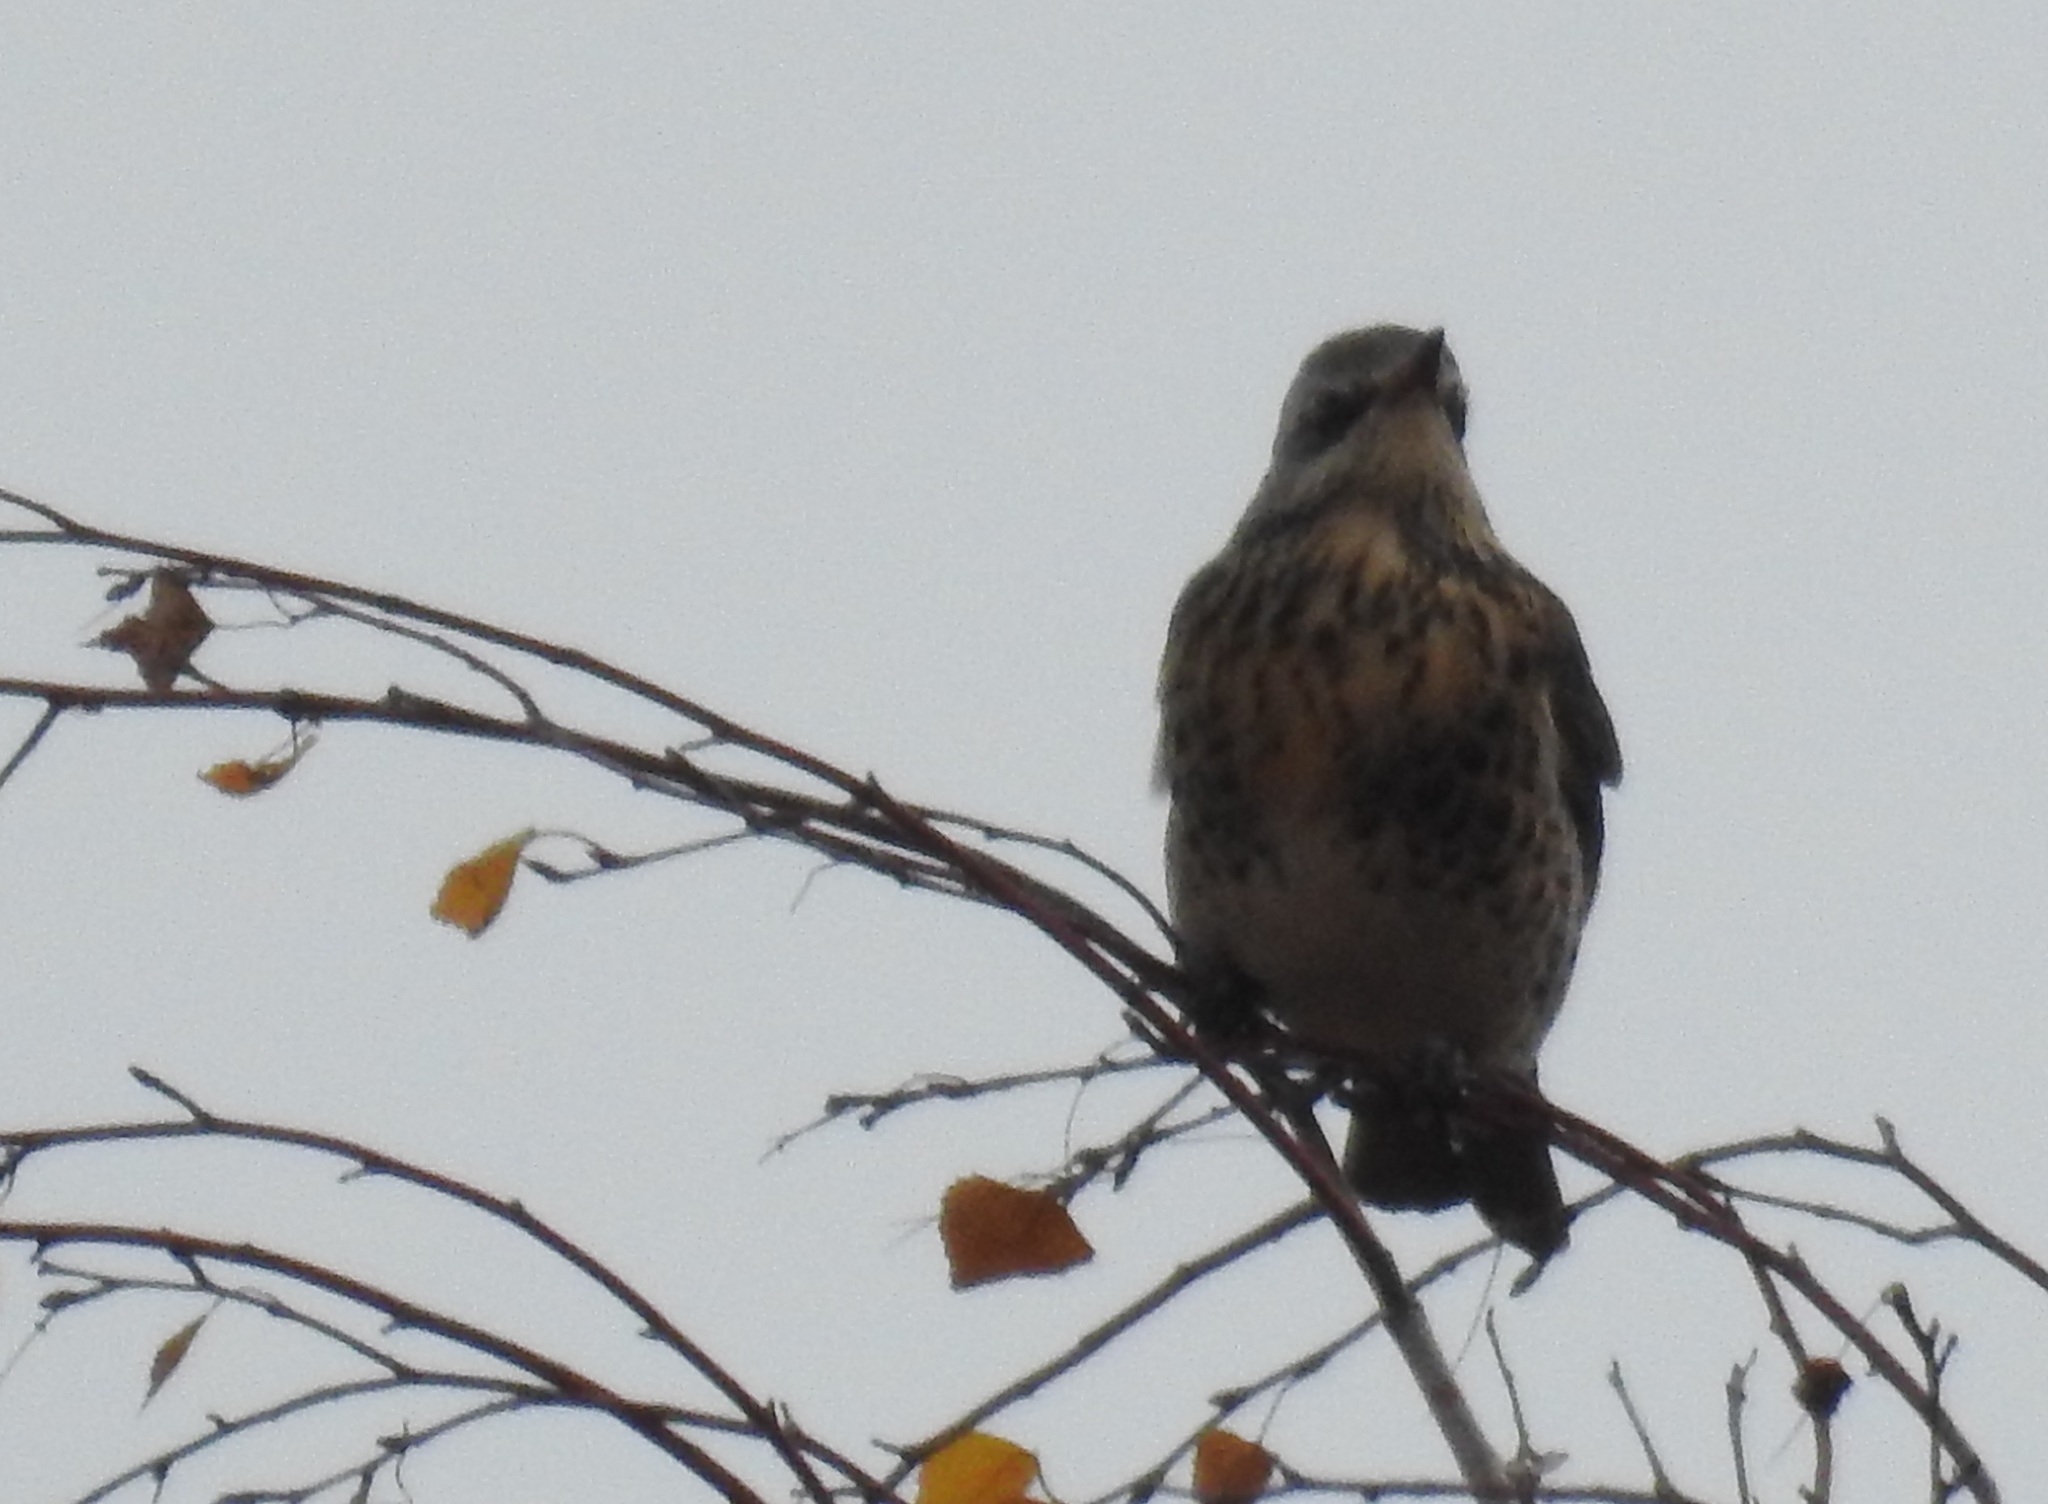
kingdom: Animalia
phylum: Chordata
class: Aves
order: Passeriformes
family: Turdidae
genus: Turdus
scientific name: Turdus pilaris
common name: Fieldfare
